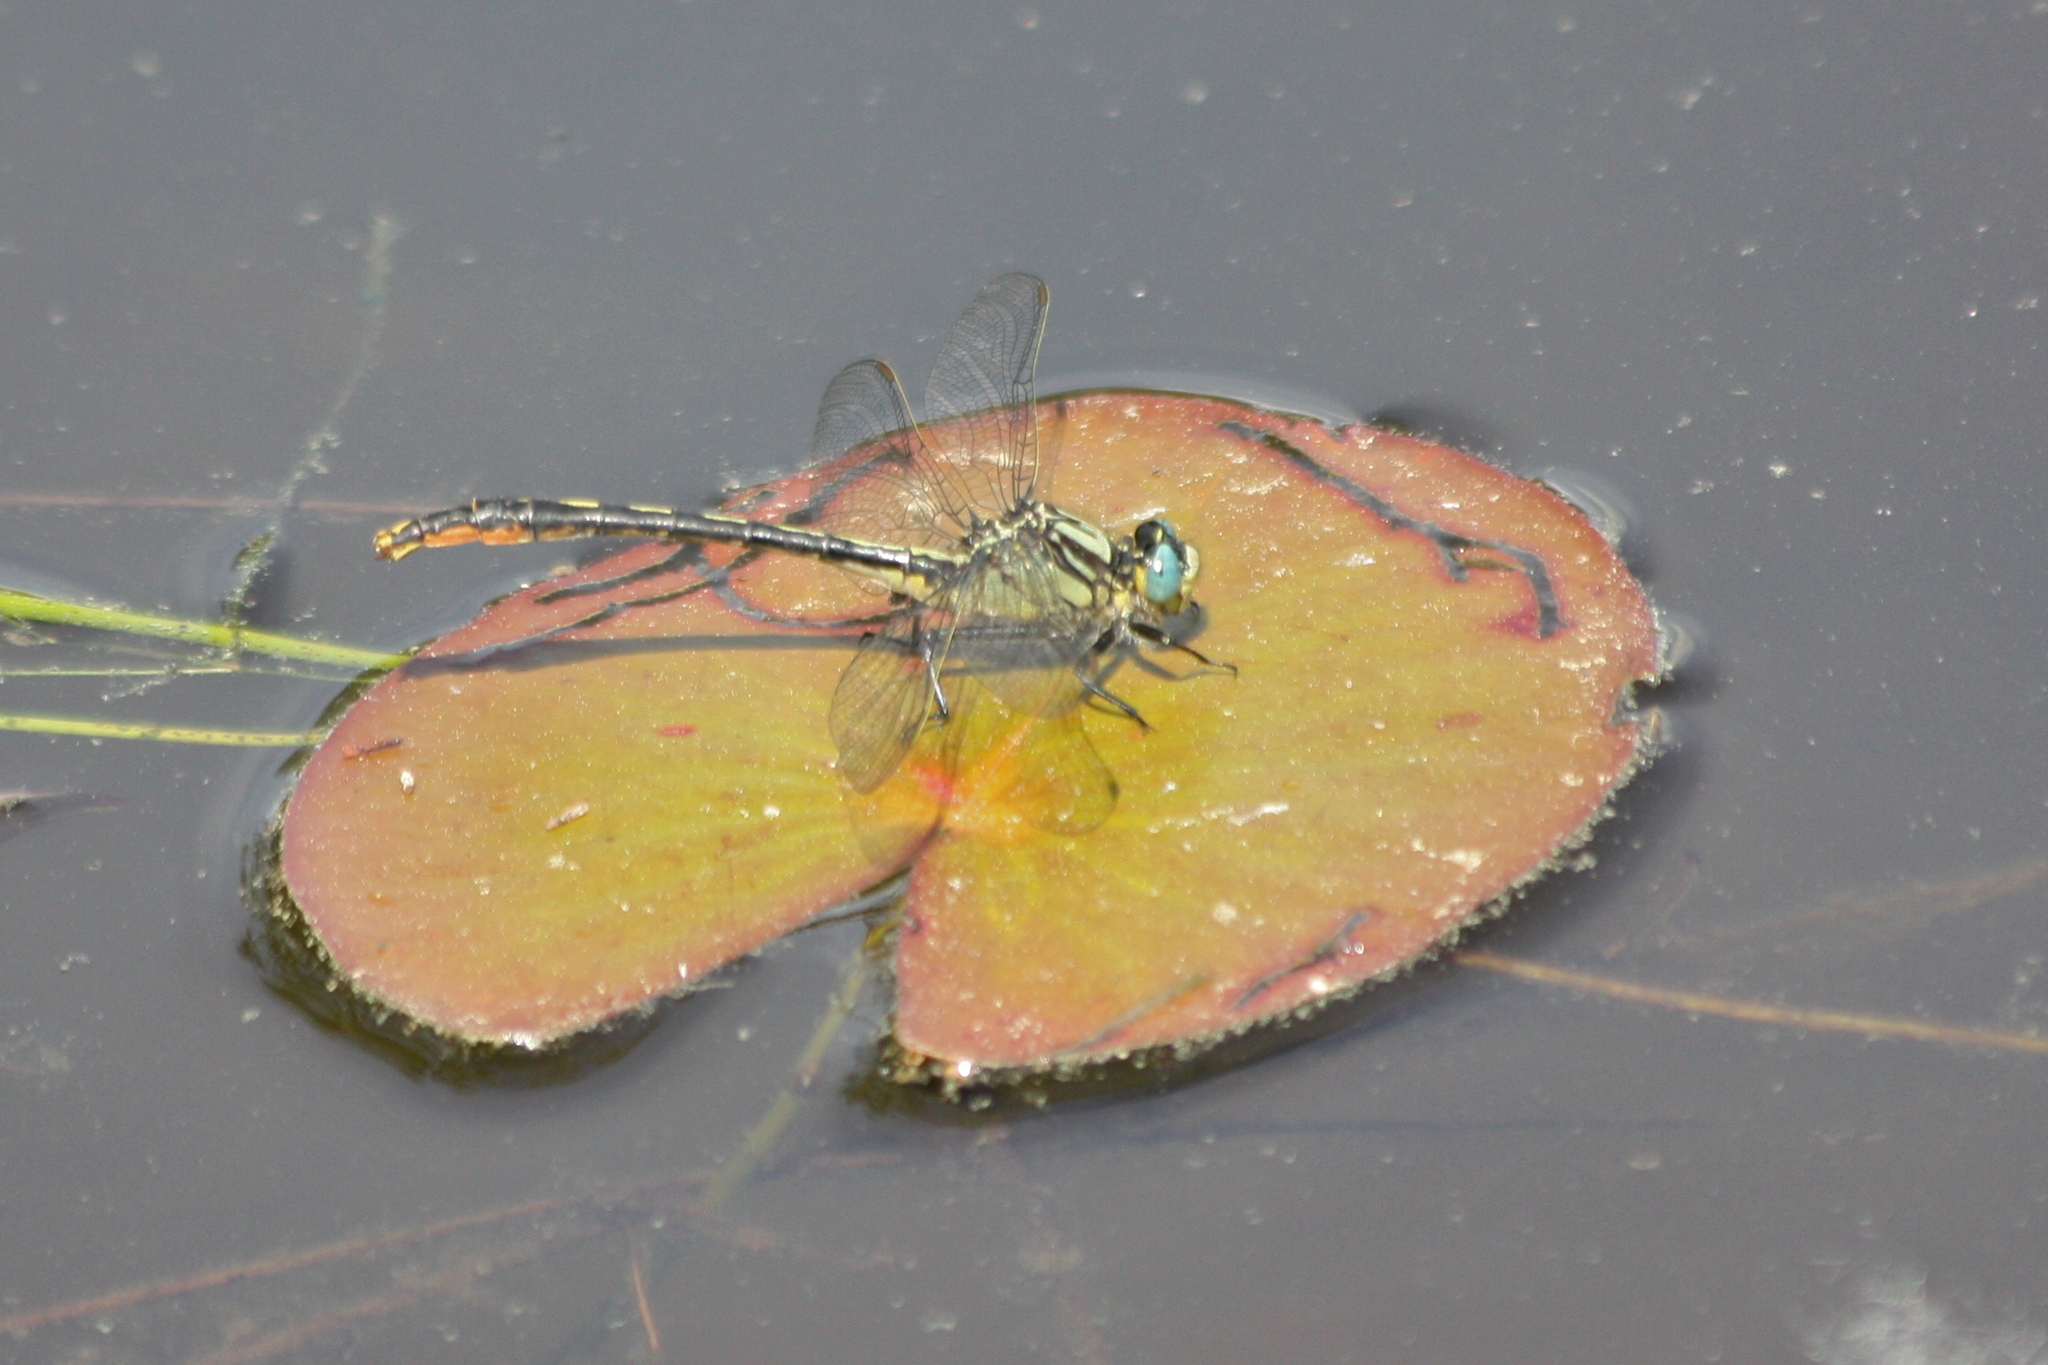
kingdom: Animalia
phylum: Arthropoda
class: Insecta
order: Odonata
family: Gomphidae
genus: Arigomphus
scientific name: Arigomphus furcifer
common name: Lilypad clubtail
